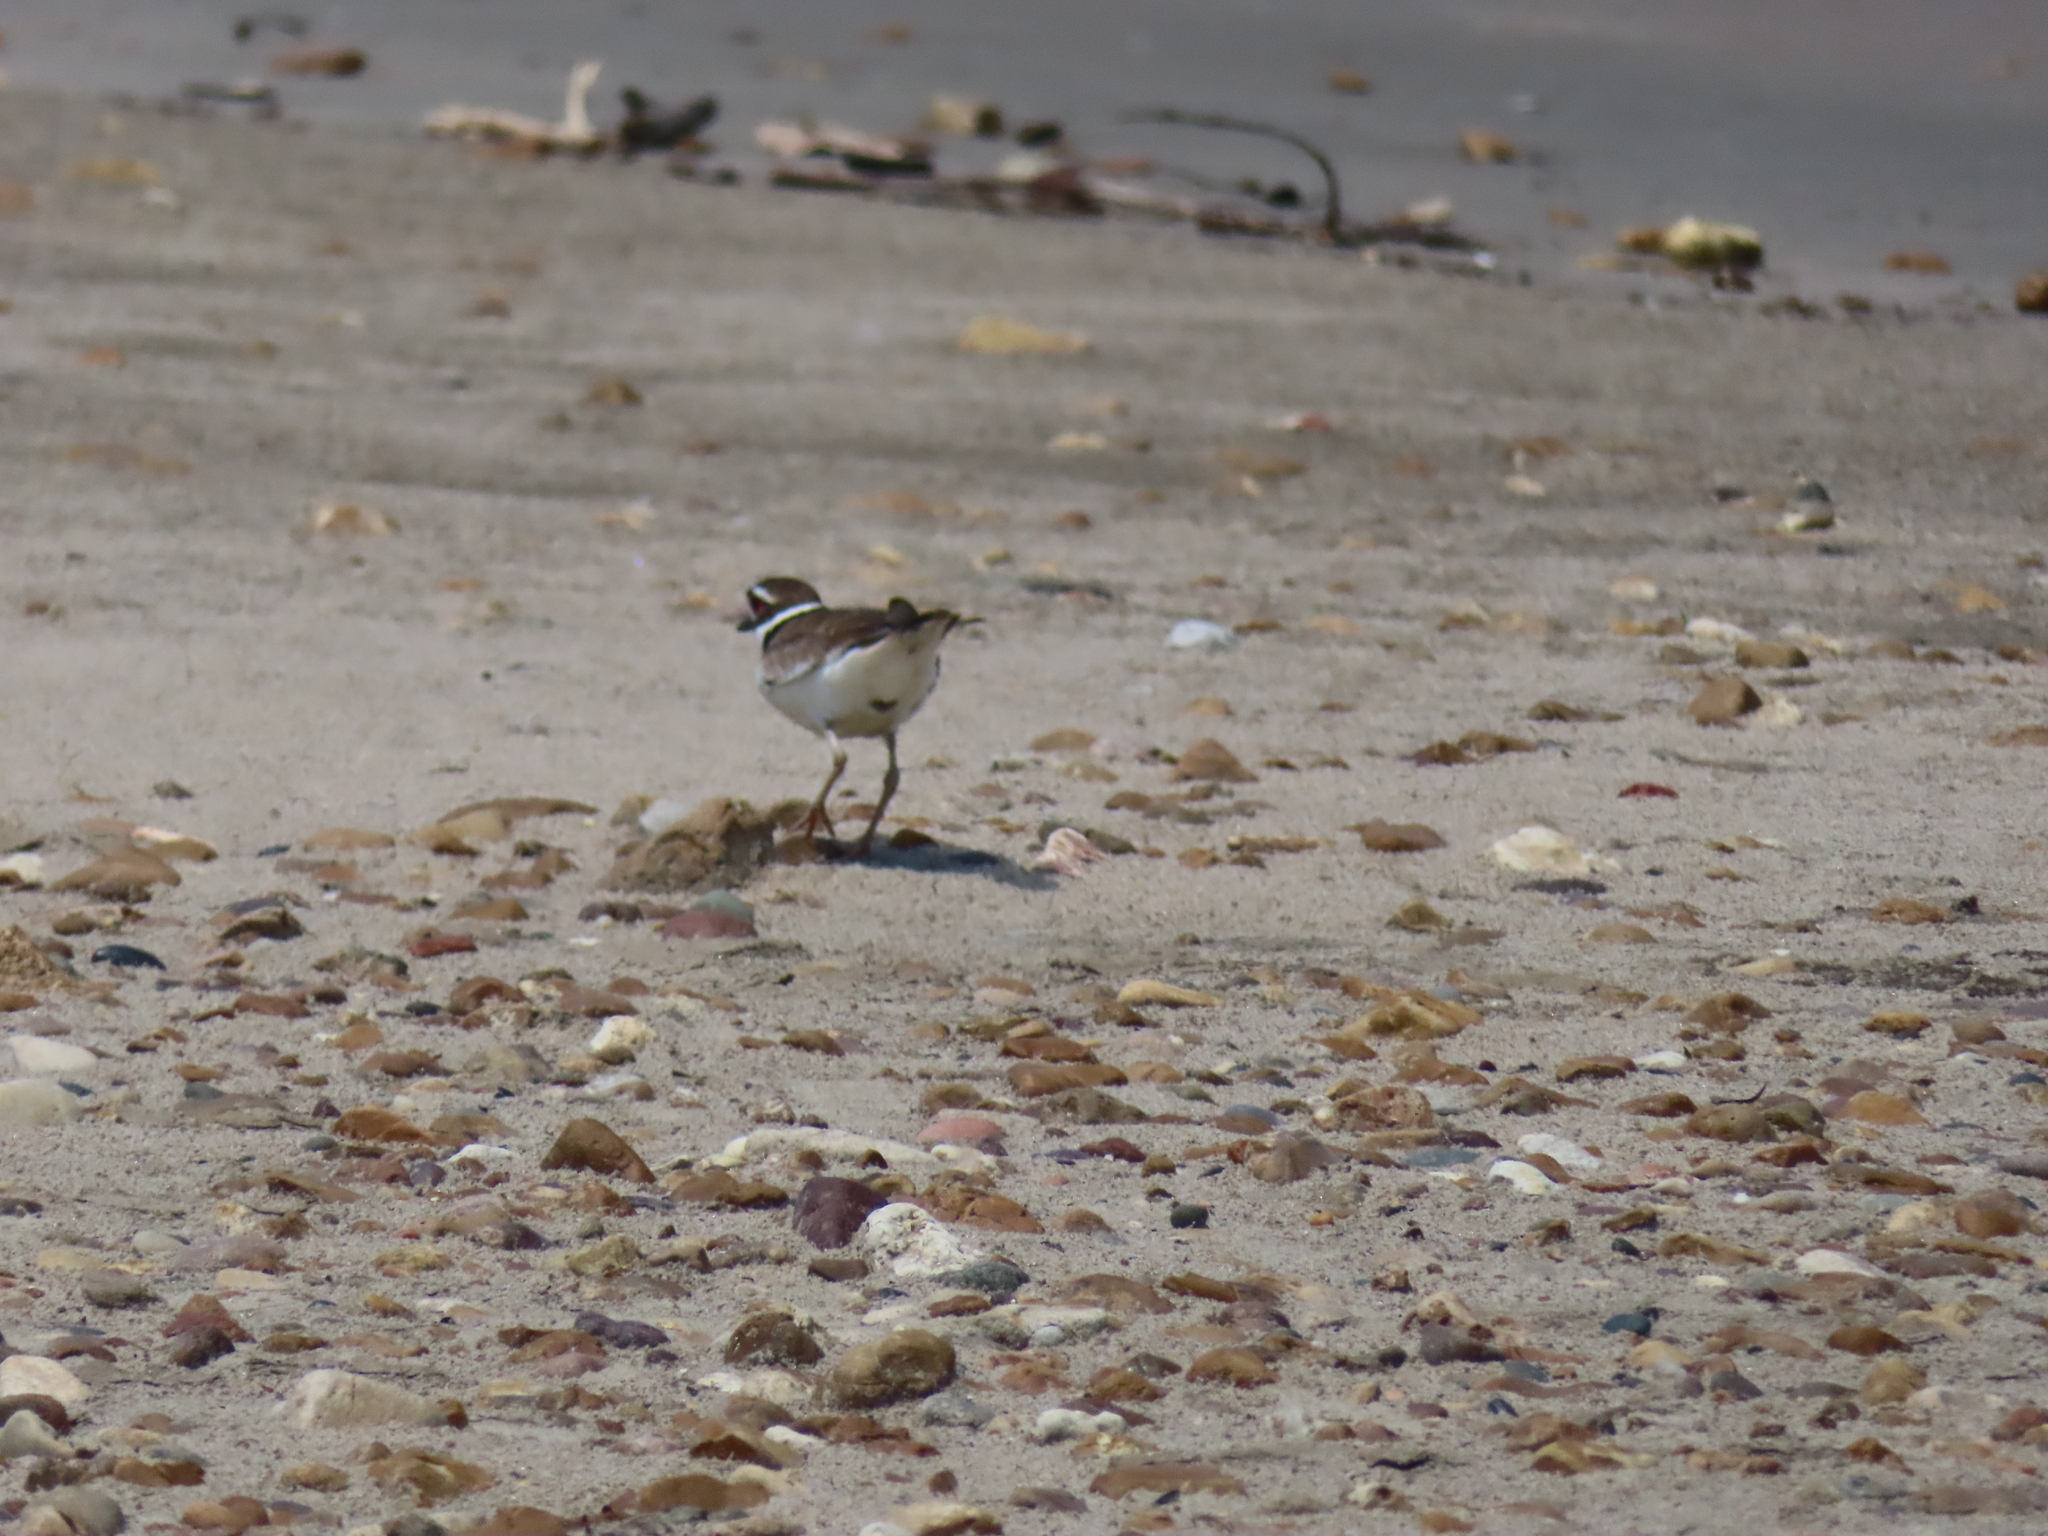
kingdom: Animalia
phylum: Chordata
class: Aves
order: Charadriiformes
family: Charadriidae
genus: Charadrius
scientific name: Charadrius vociferus
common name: Killdeer
